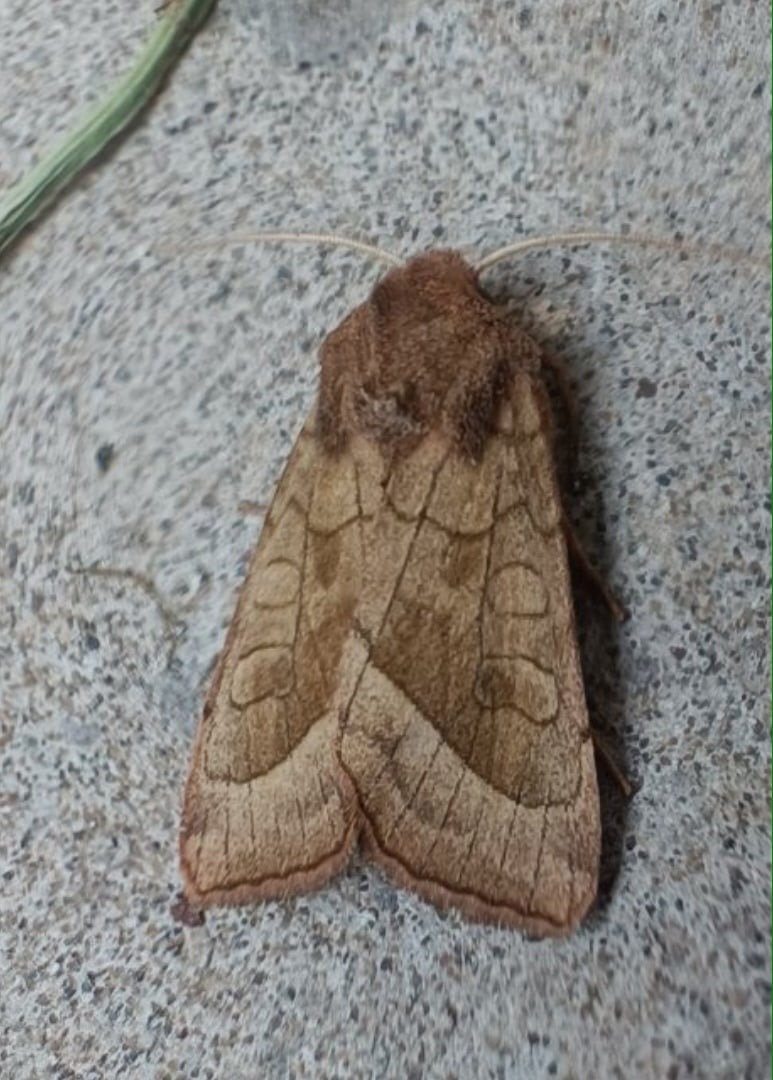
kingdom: Animalia
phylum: Arthropoda
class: Insecta
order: Lepidoptera
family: Noctuidae
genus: Hydraecia
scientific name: Hydraecia micacea
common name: Rosy rustic
